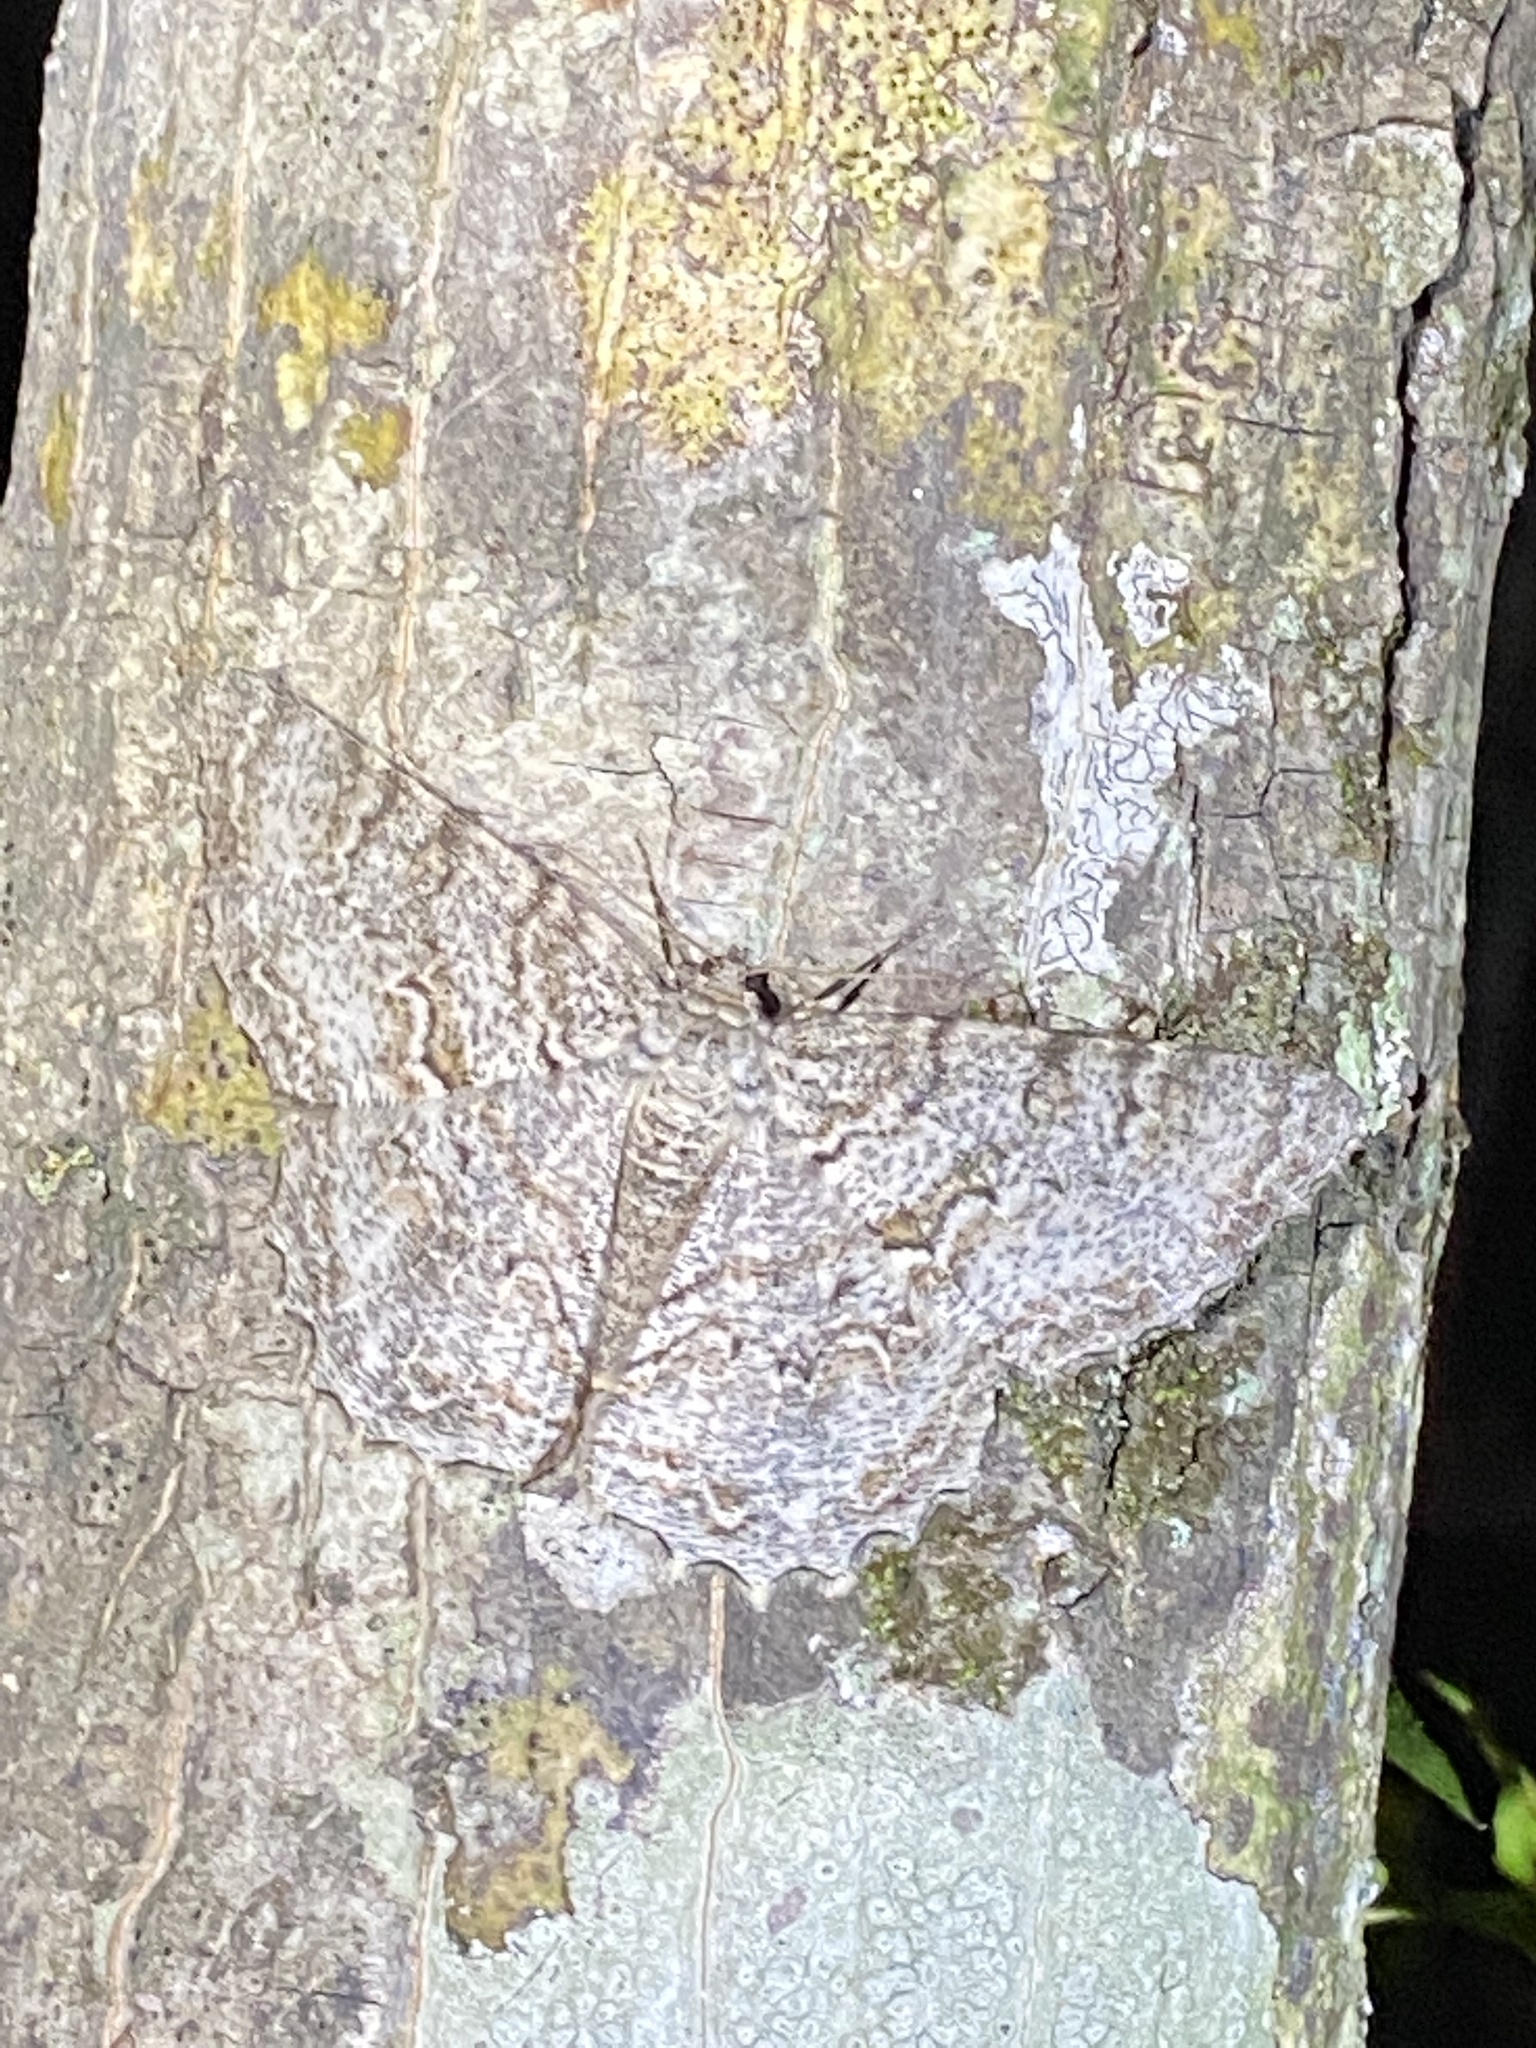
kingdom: Animalia
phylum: Arthropoda
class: Insecta
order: Lepidoptera
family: Geometridae
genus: Epimecis
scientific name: Epimecis hortaria
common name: Tulip-tree beauty
